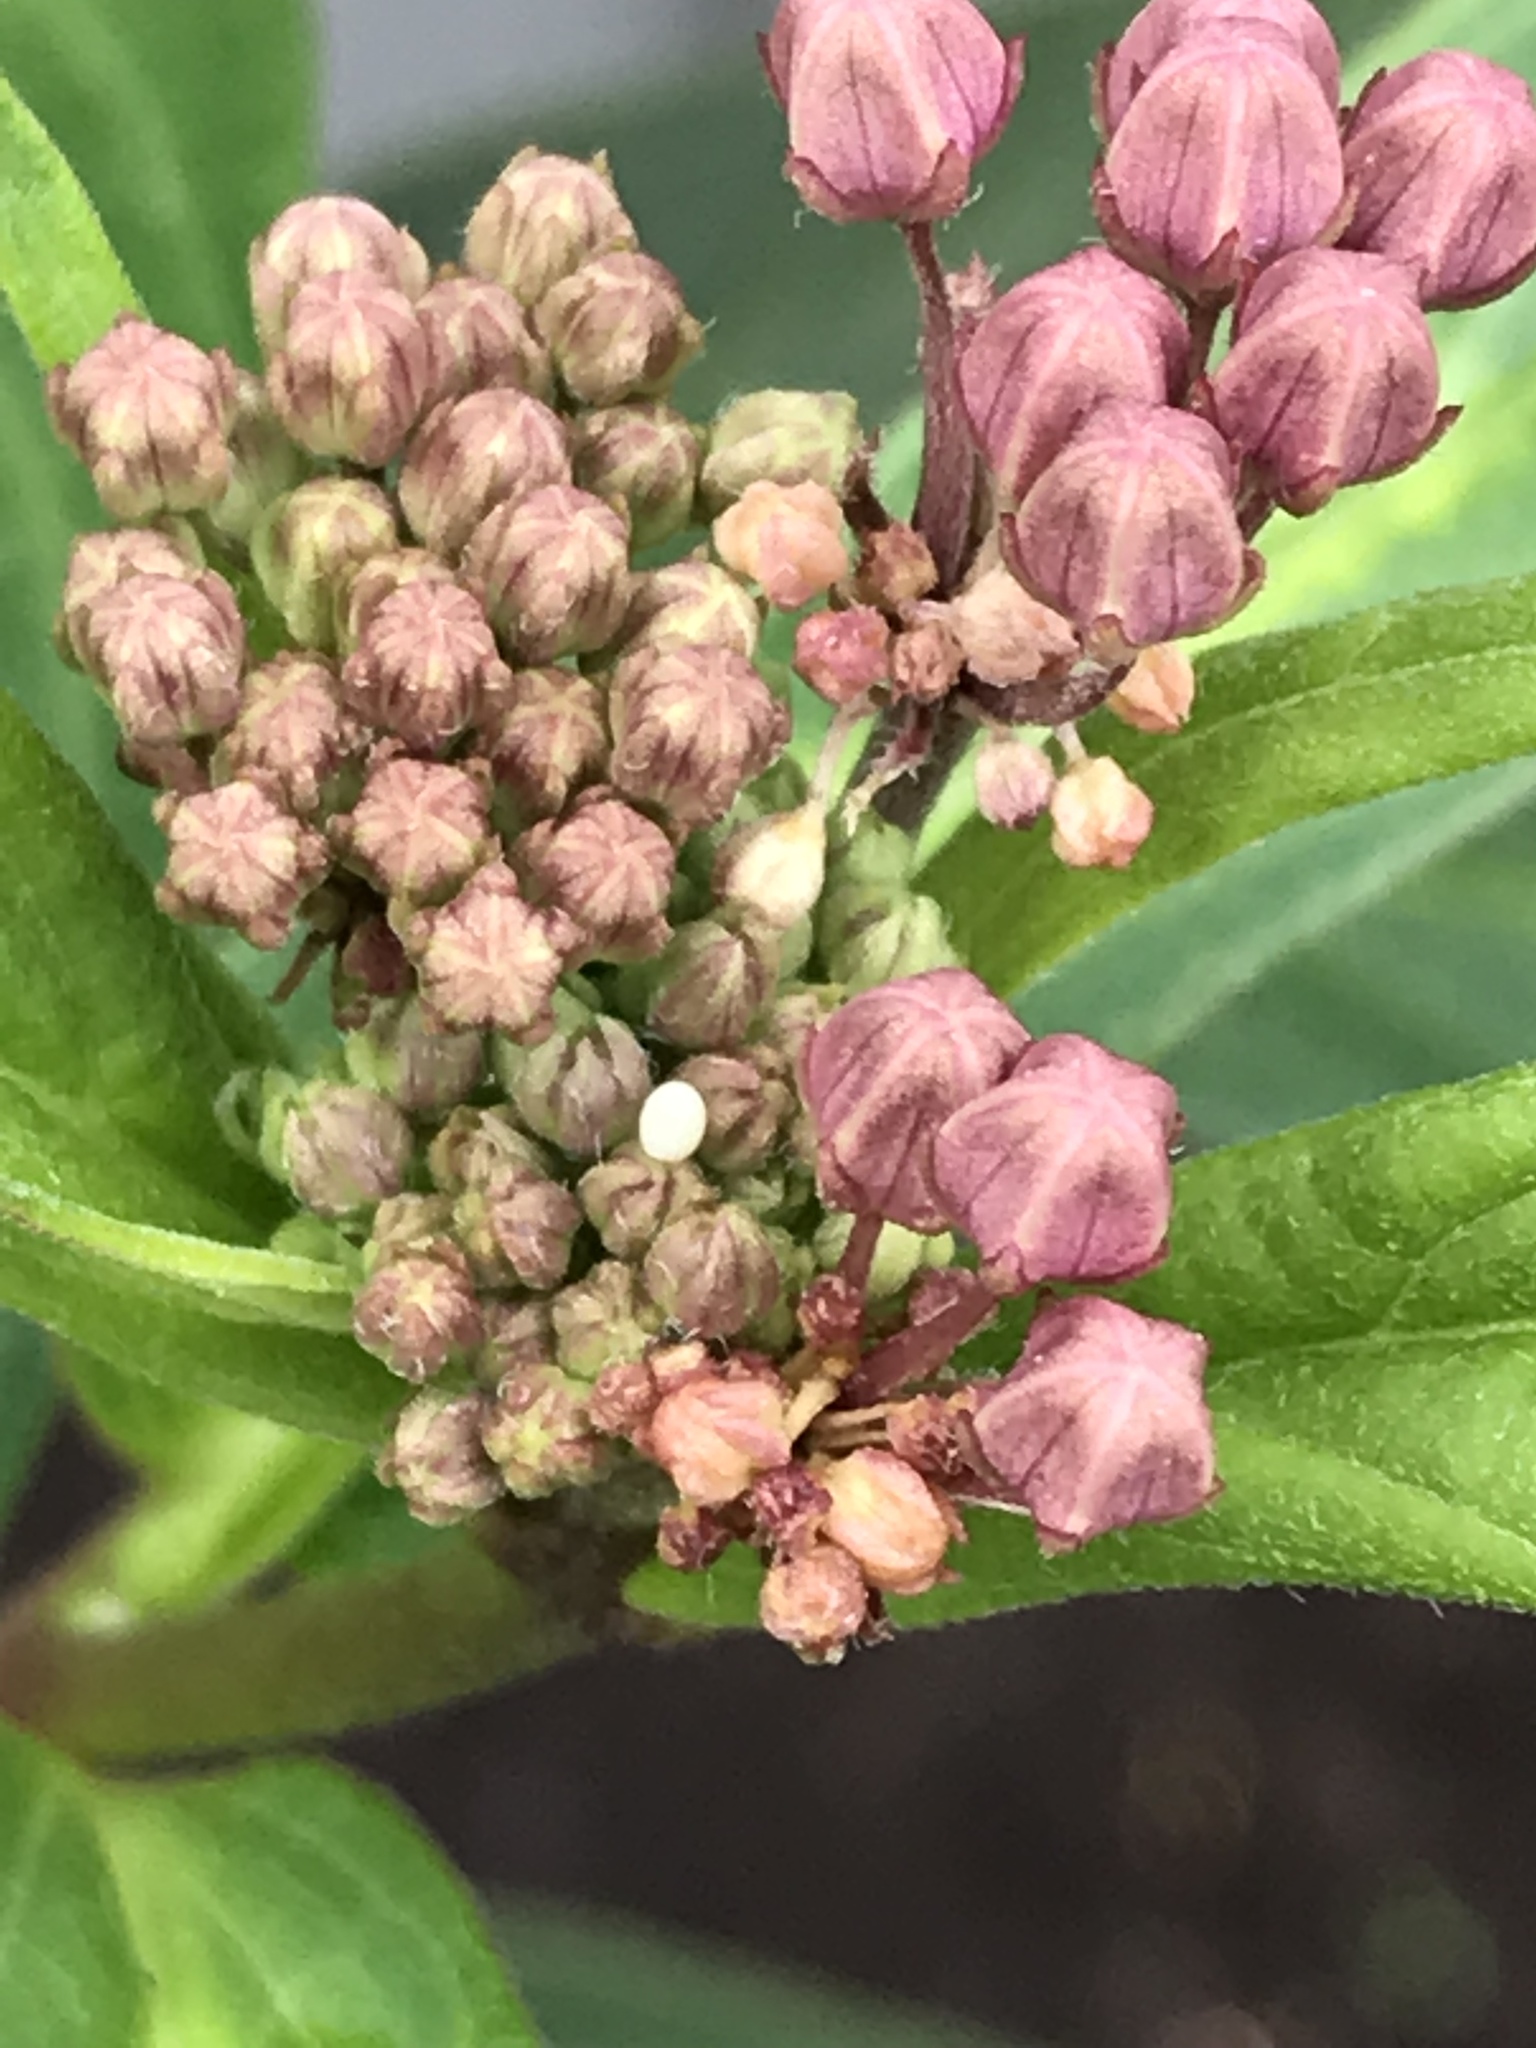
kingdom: Animalia
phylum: Arthropoda
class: Insecta
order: Lepidoptera
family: Nymphalidae
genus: Danaus
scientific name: Danaus plexippus
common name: Monarch
